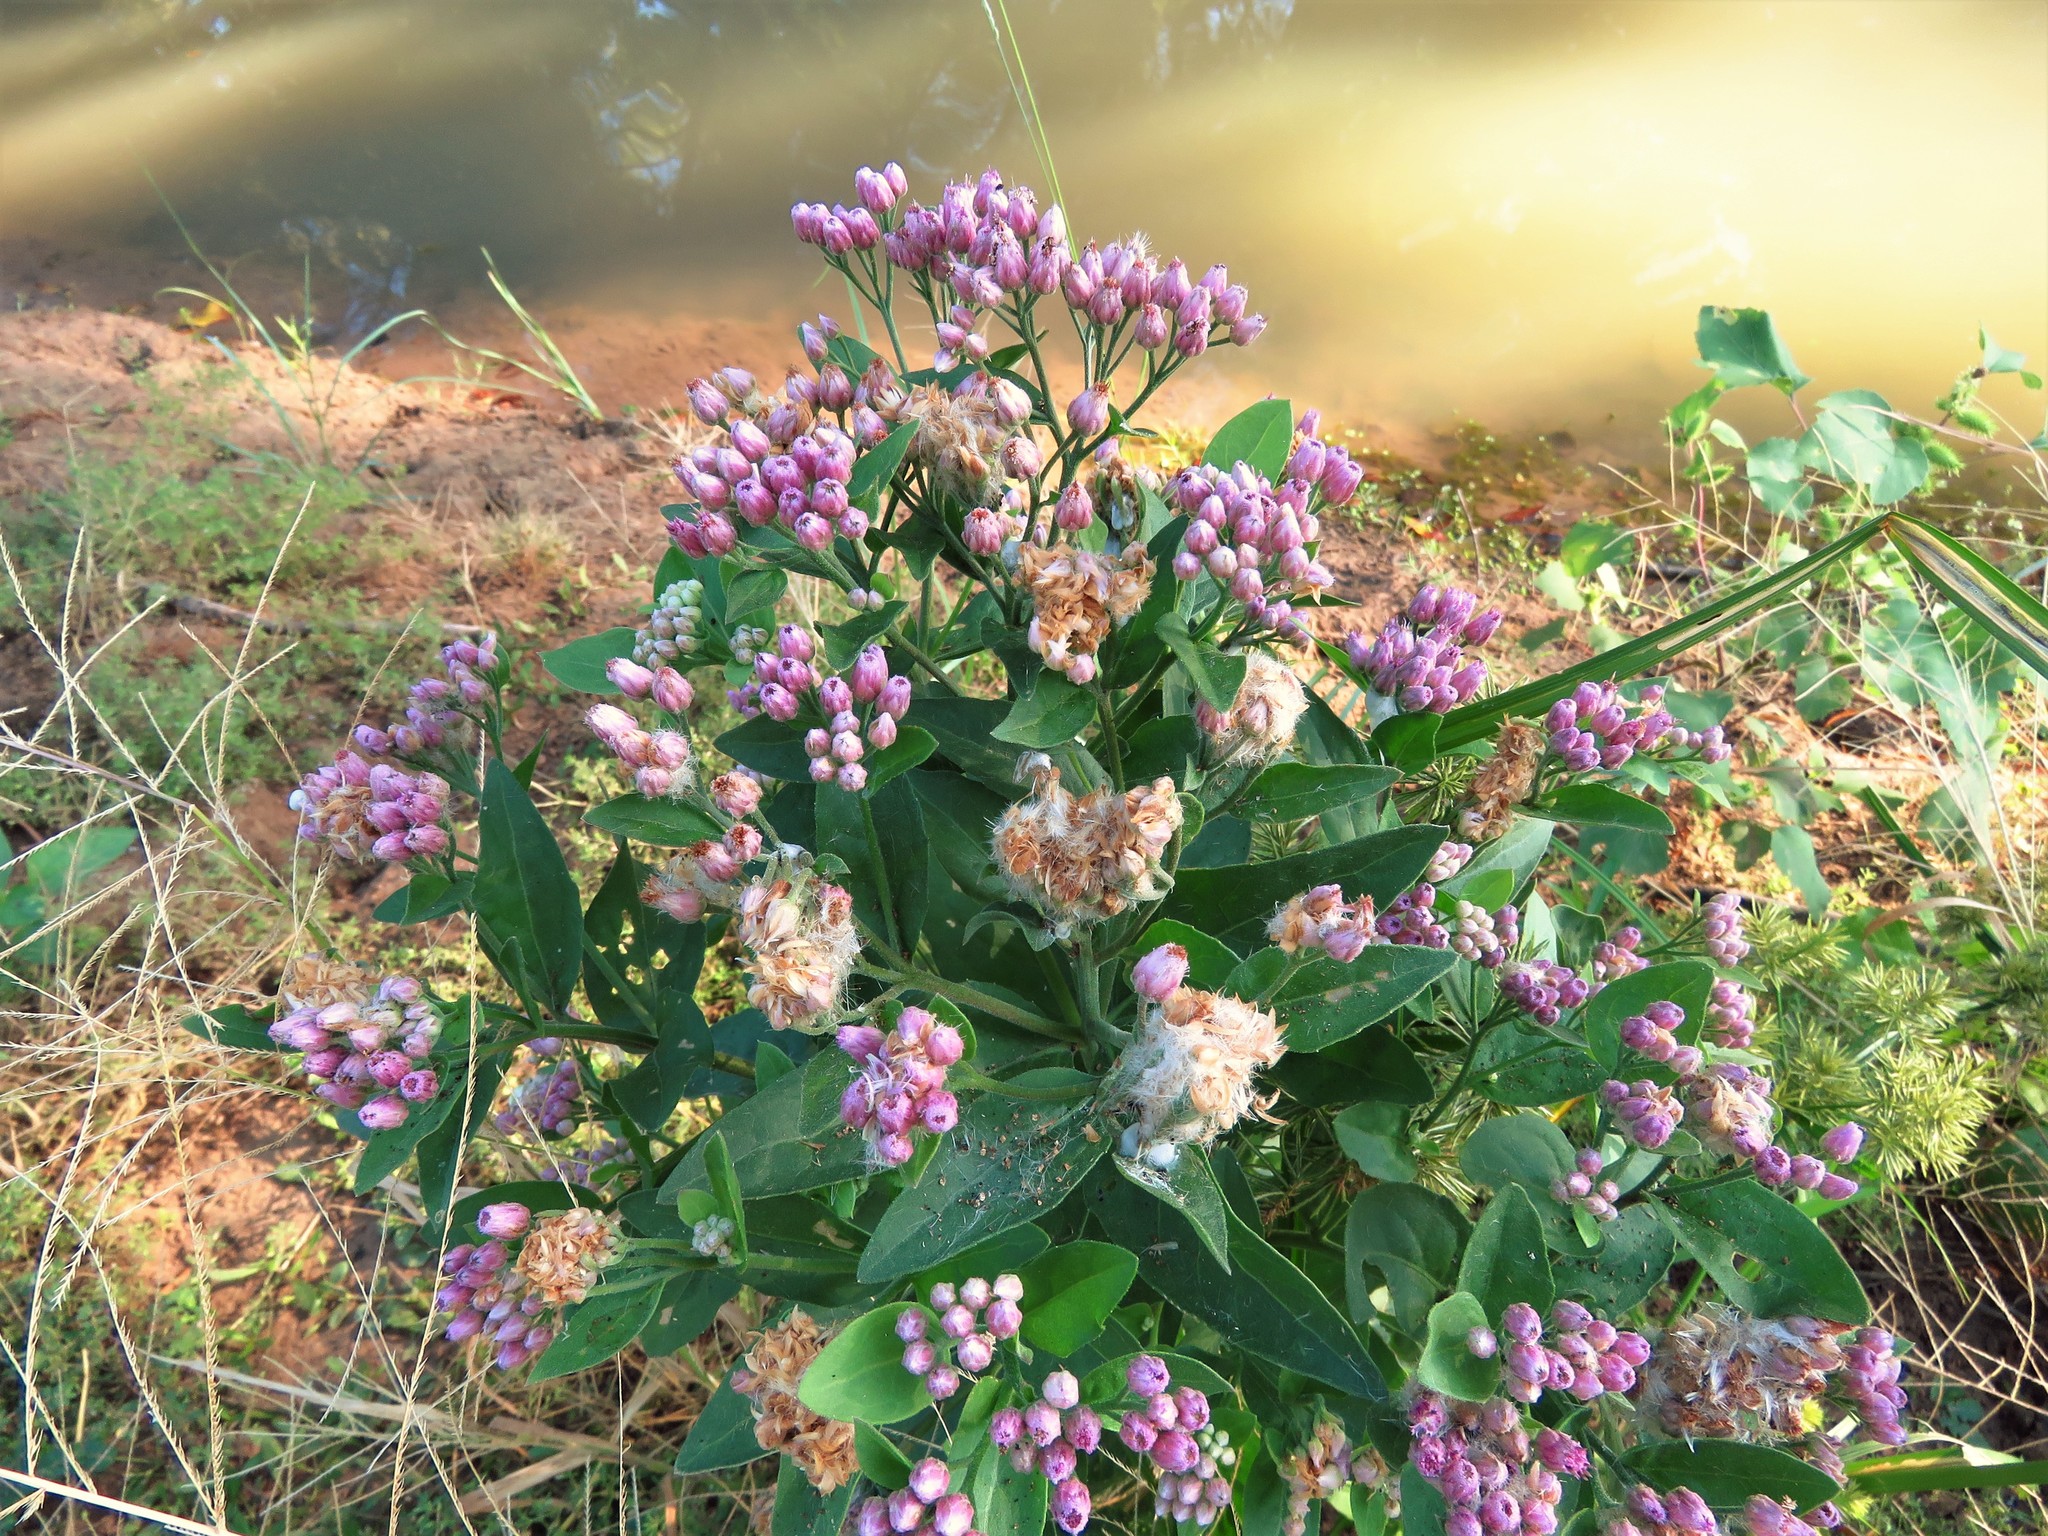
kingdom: Plantae
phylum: Tracheophyta
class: Magnoliopsida
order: Asterales
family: Asteraceae
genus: Pluchea
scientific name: Pluchea odorata
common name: Saltmarsh fleabane
